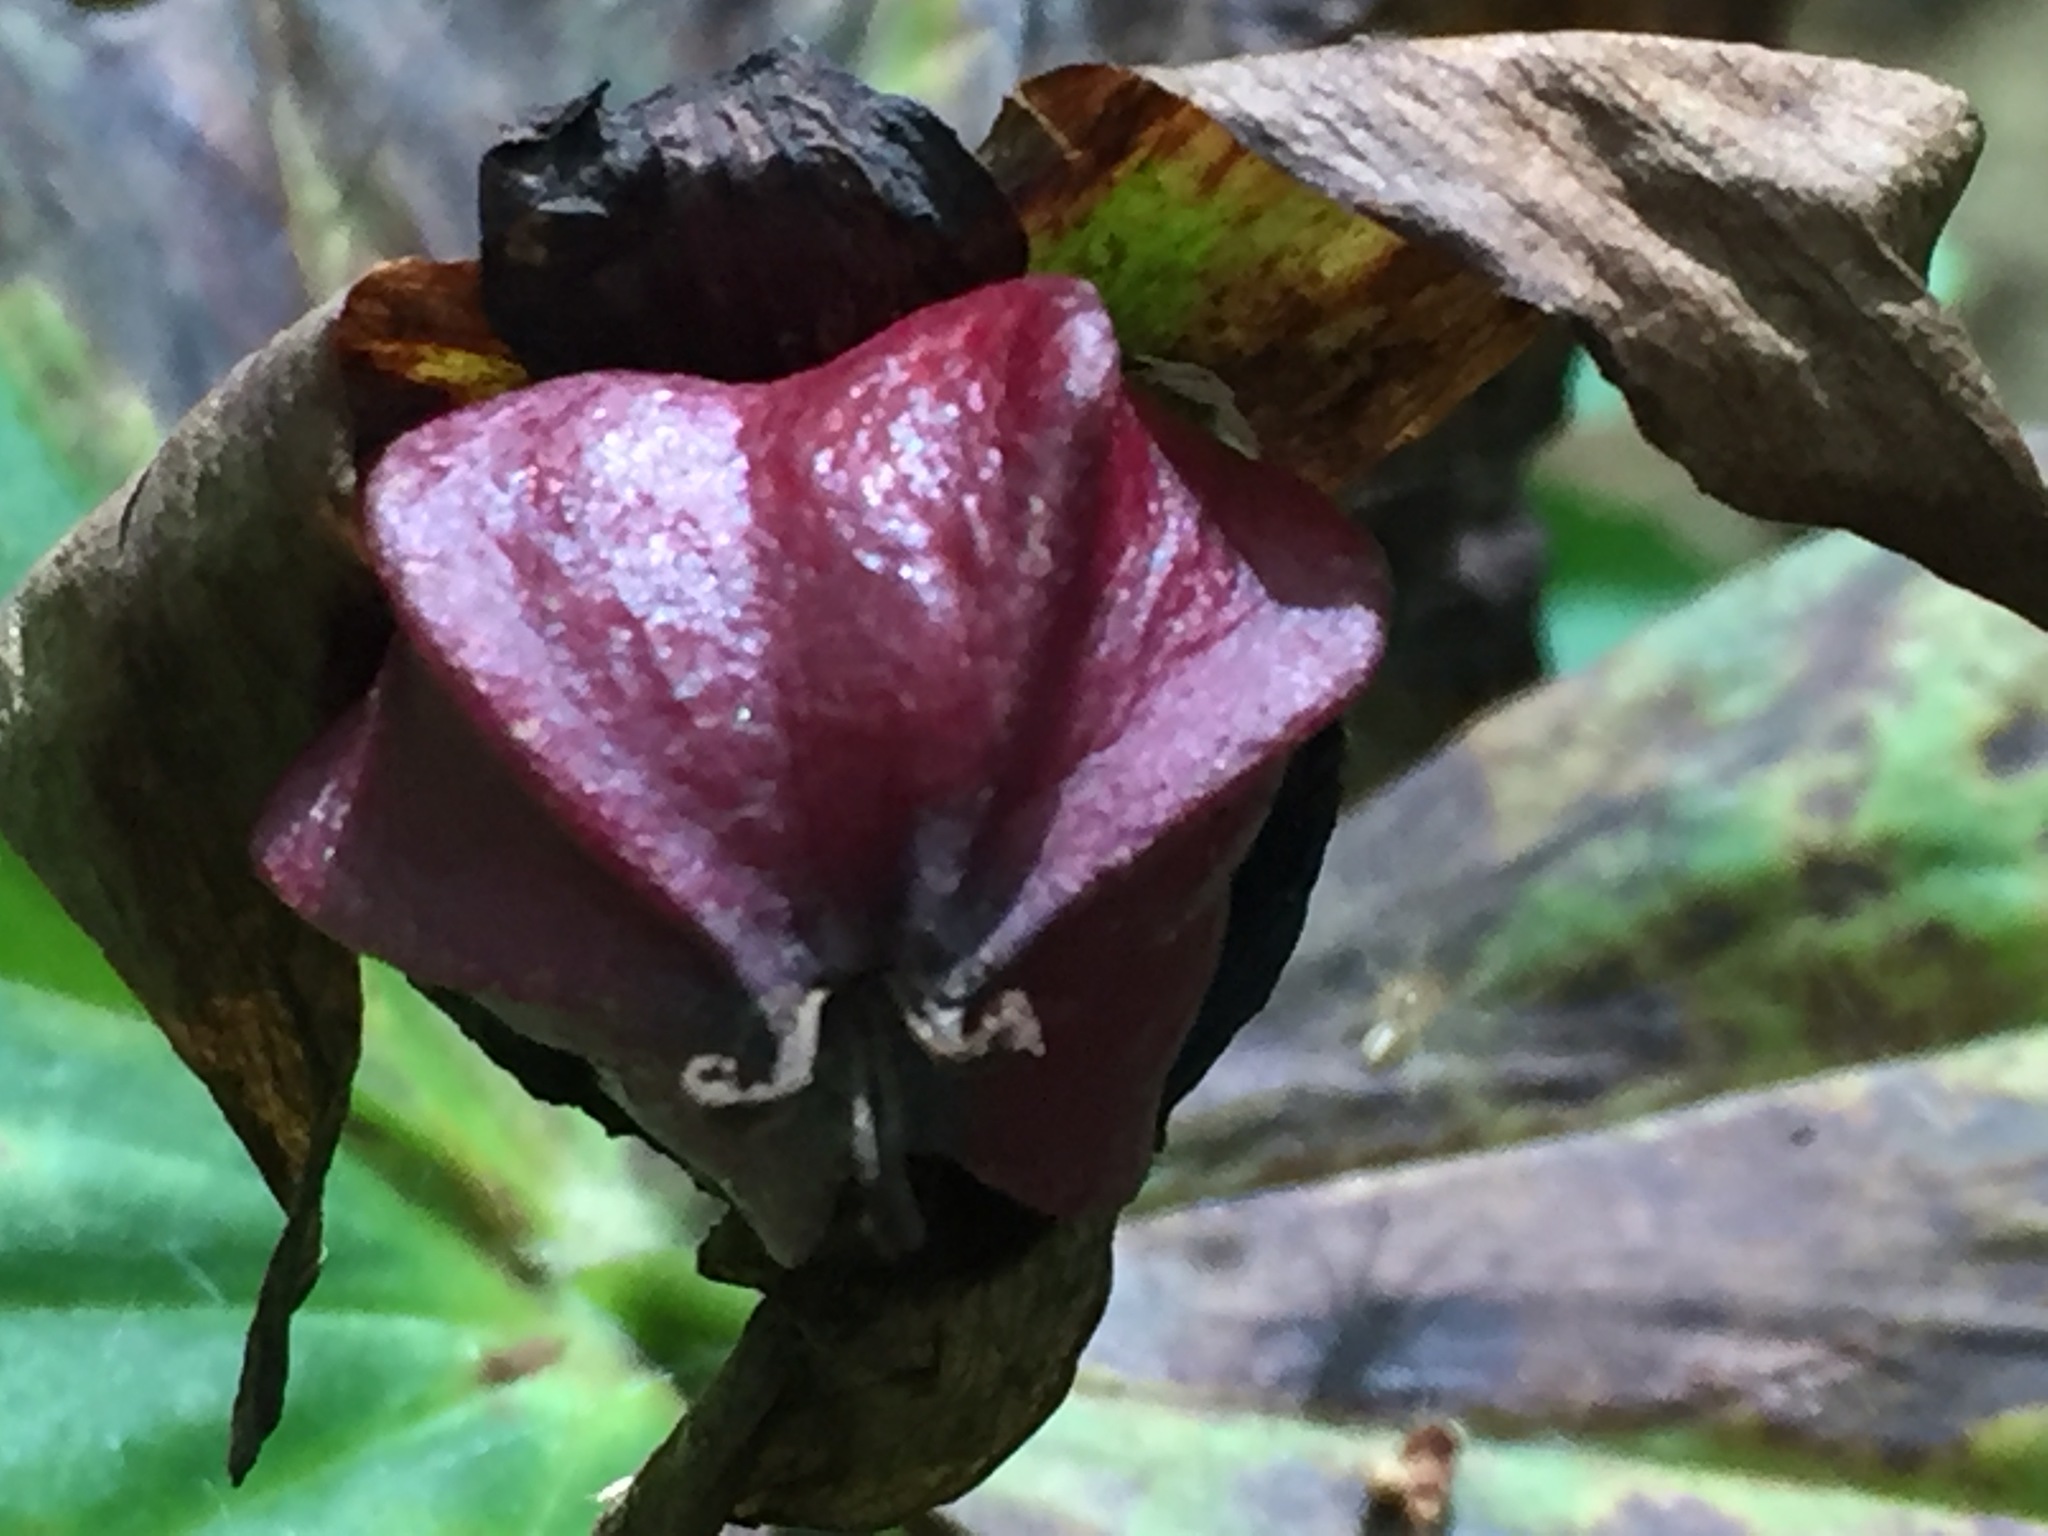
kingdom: Plantae
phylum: Tracheophyta
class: Liliopsida
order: Liliales
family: Melanthiaceae
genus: Trillium
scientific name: Trillium erectum
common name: Purple trillium
